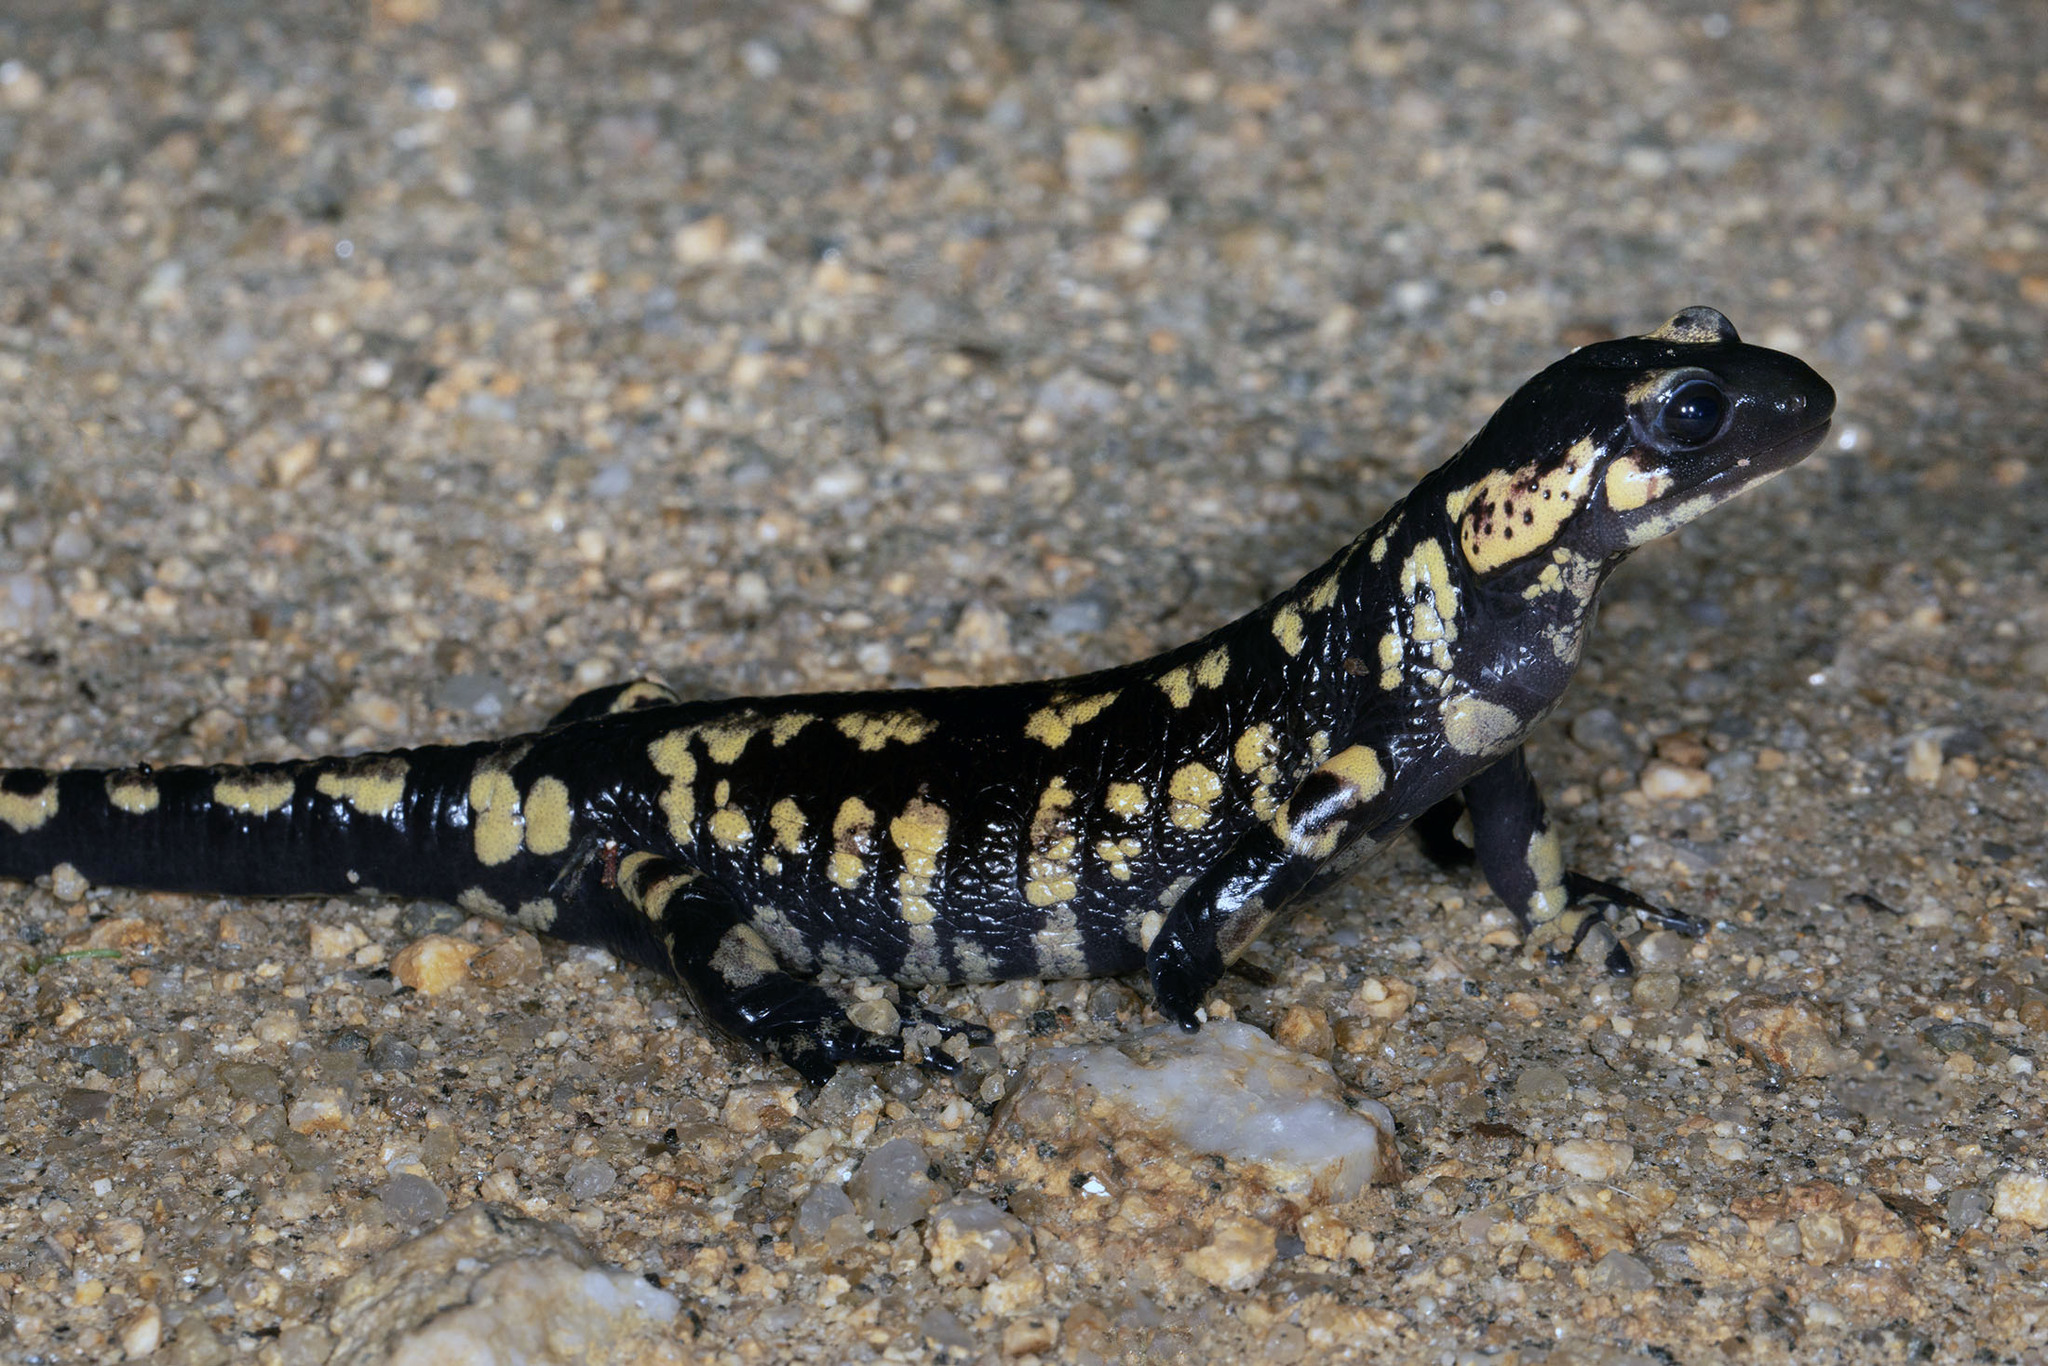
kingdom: Animalia
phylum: Chordata
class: Amphibia
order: Caudata
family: Salamandridae
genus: Salamandra
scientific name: Salamandra salamandra
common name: Fire salamander
